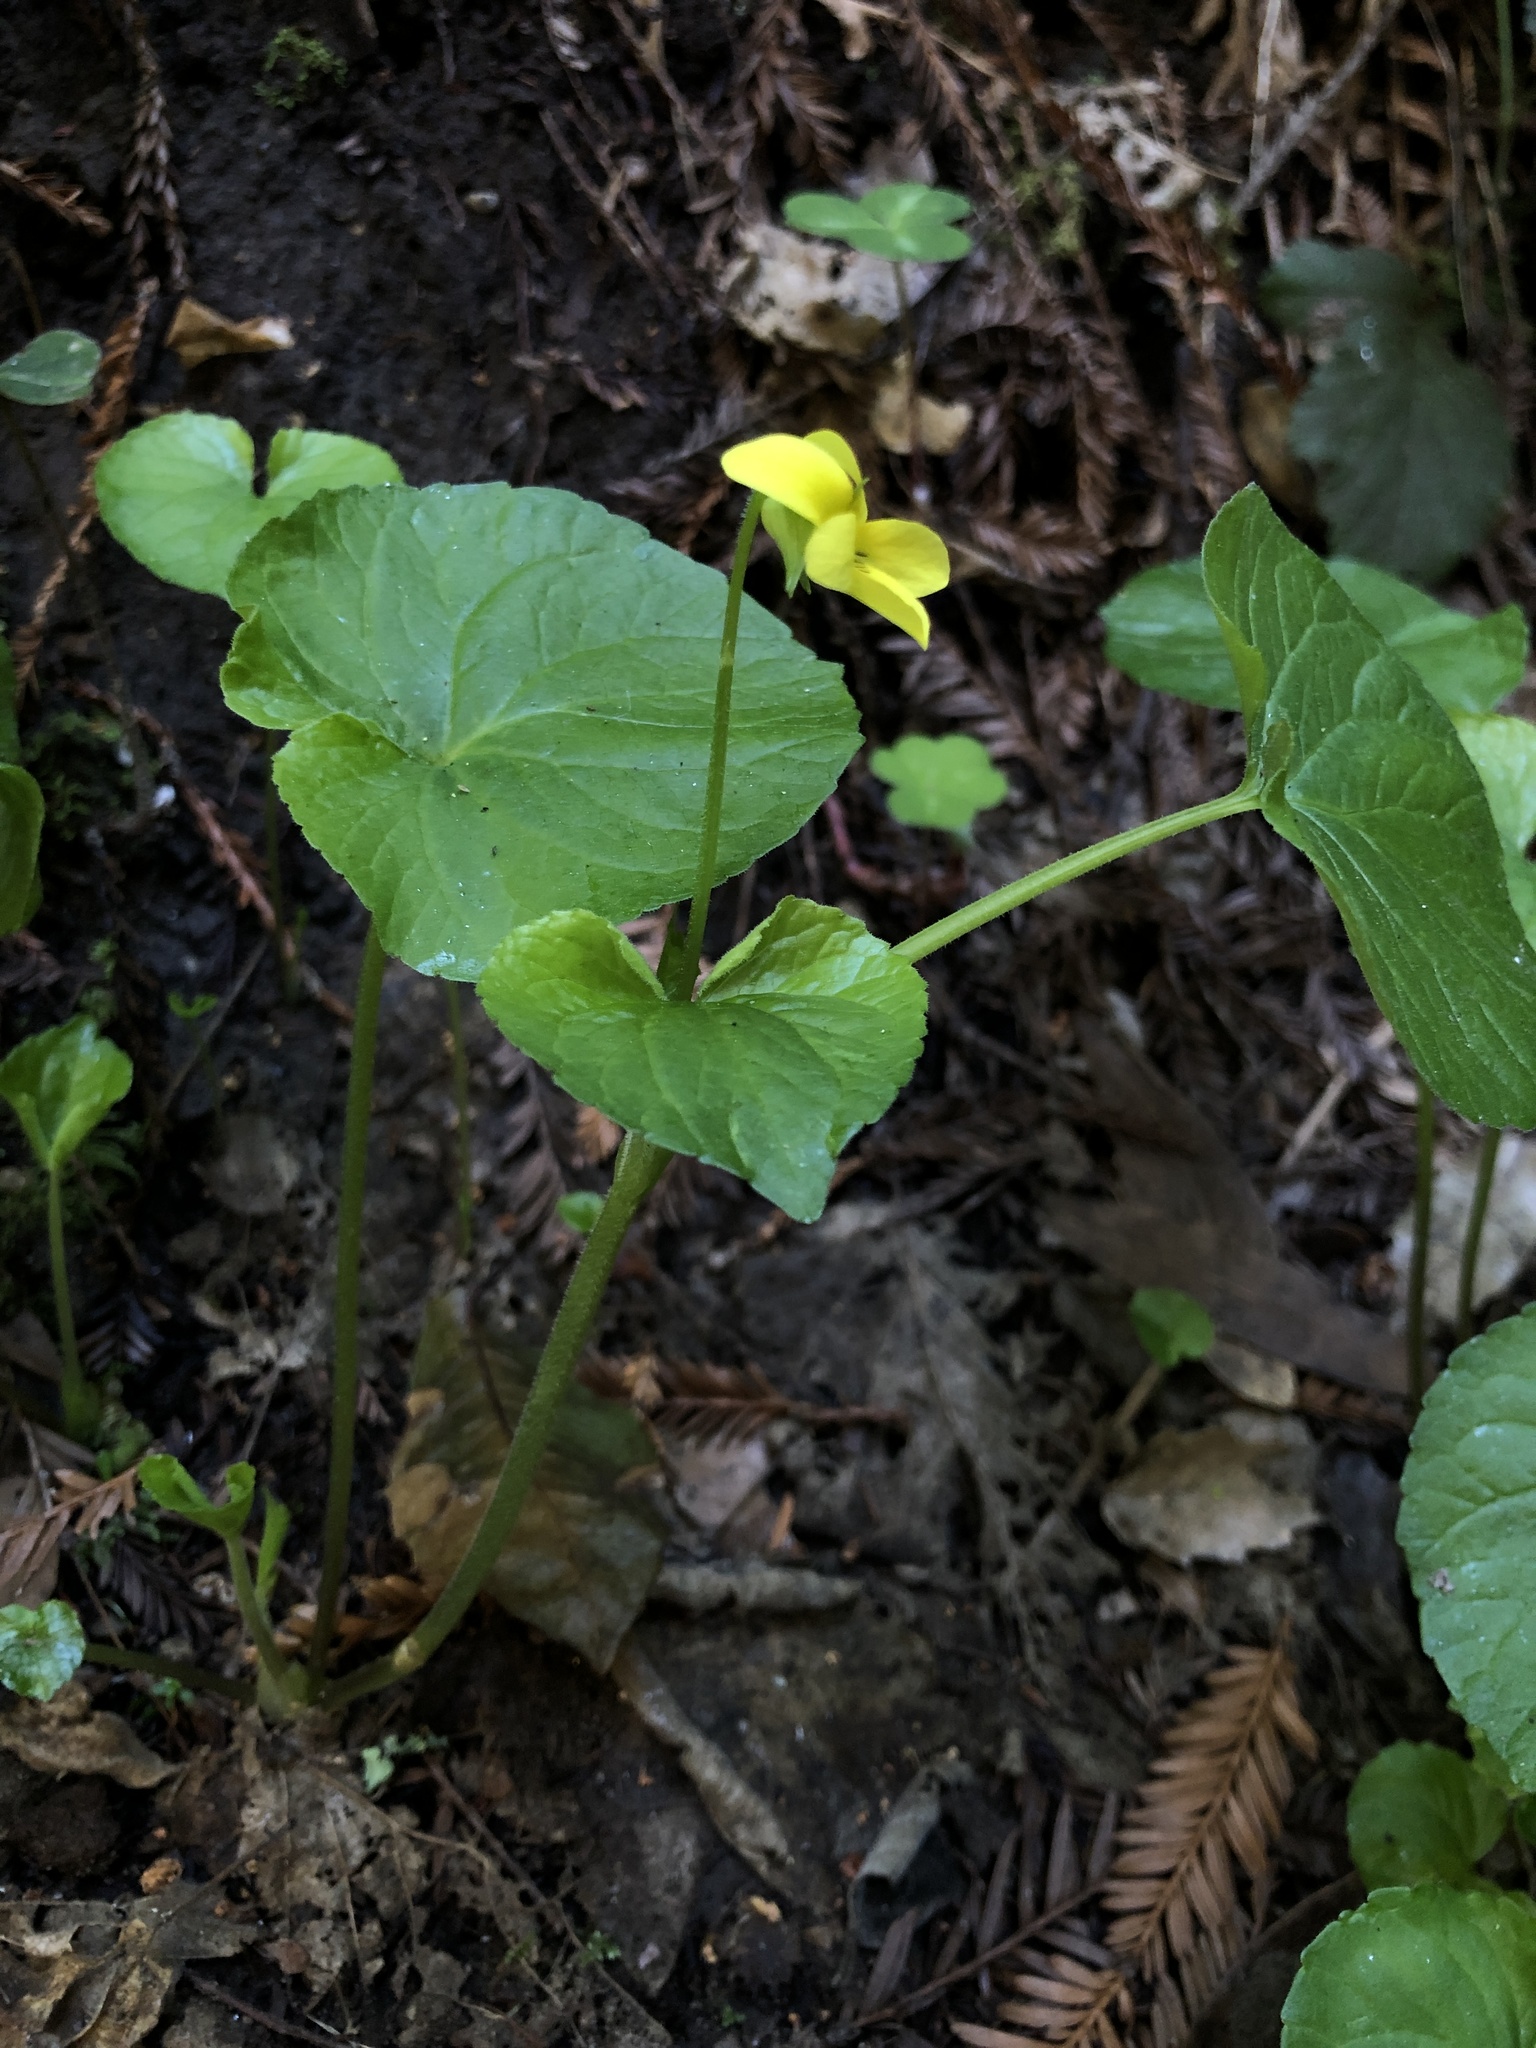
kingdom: Plantae
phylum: Tracheophyta
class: Magnoliopsida
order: Malpighiales
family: Violaceae
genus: Viola
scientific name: Viola glabella
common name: Stream violet
